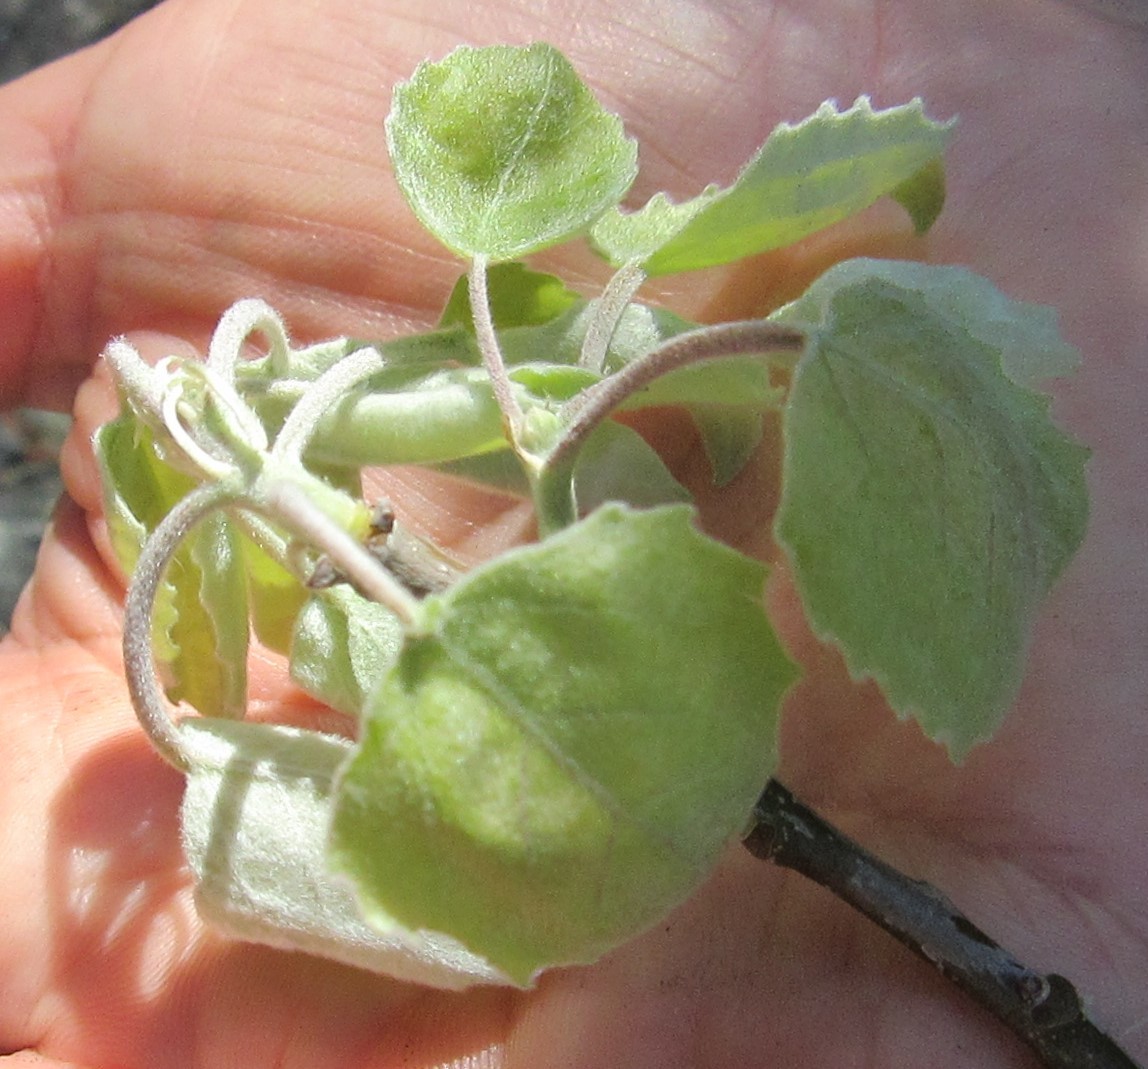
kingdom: Plantae
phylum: Tracheophyta
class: Magnoliopsida
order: Malpighiales
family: Salicaceae
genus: Populus
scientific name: Populus grandidentata
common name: Bigtooth aspen
